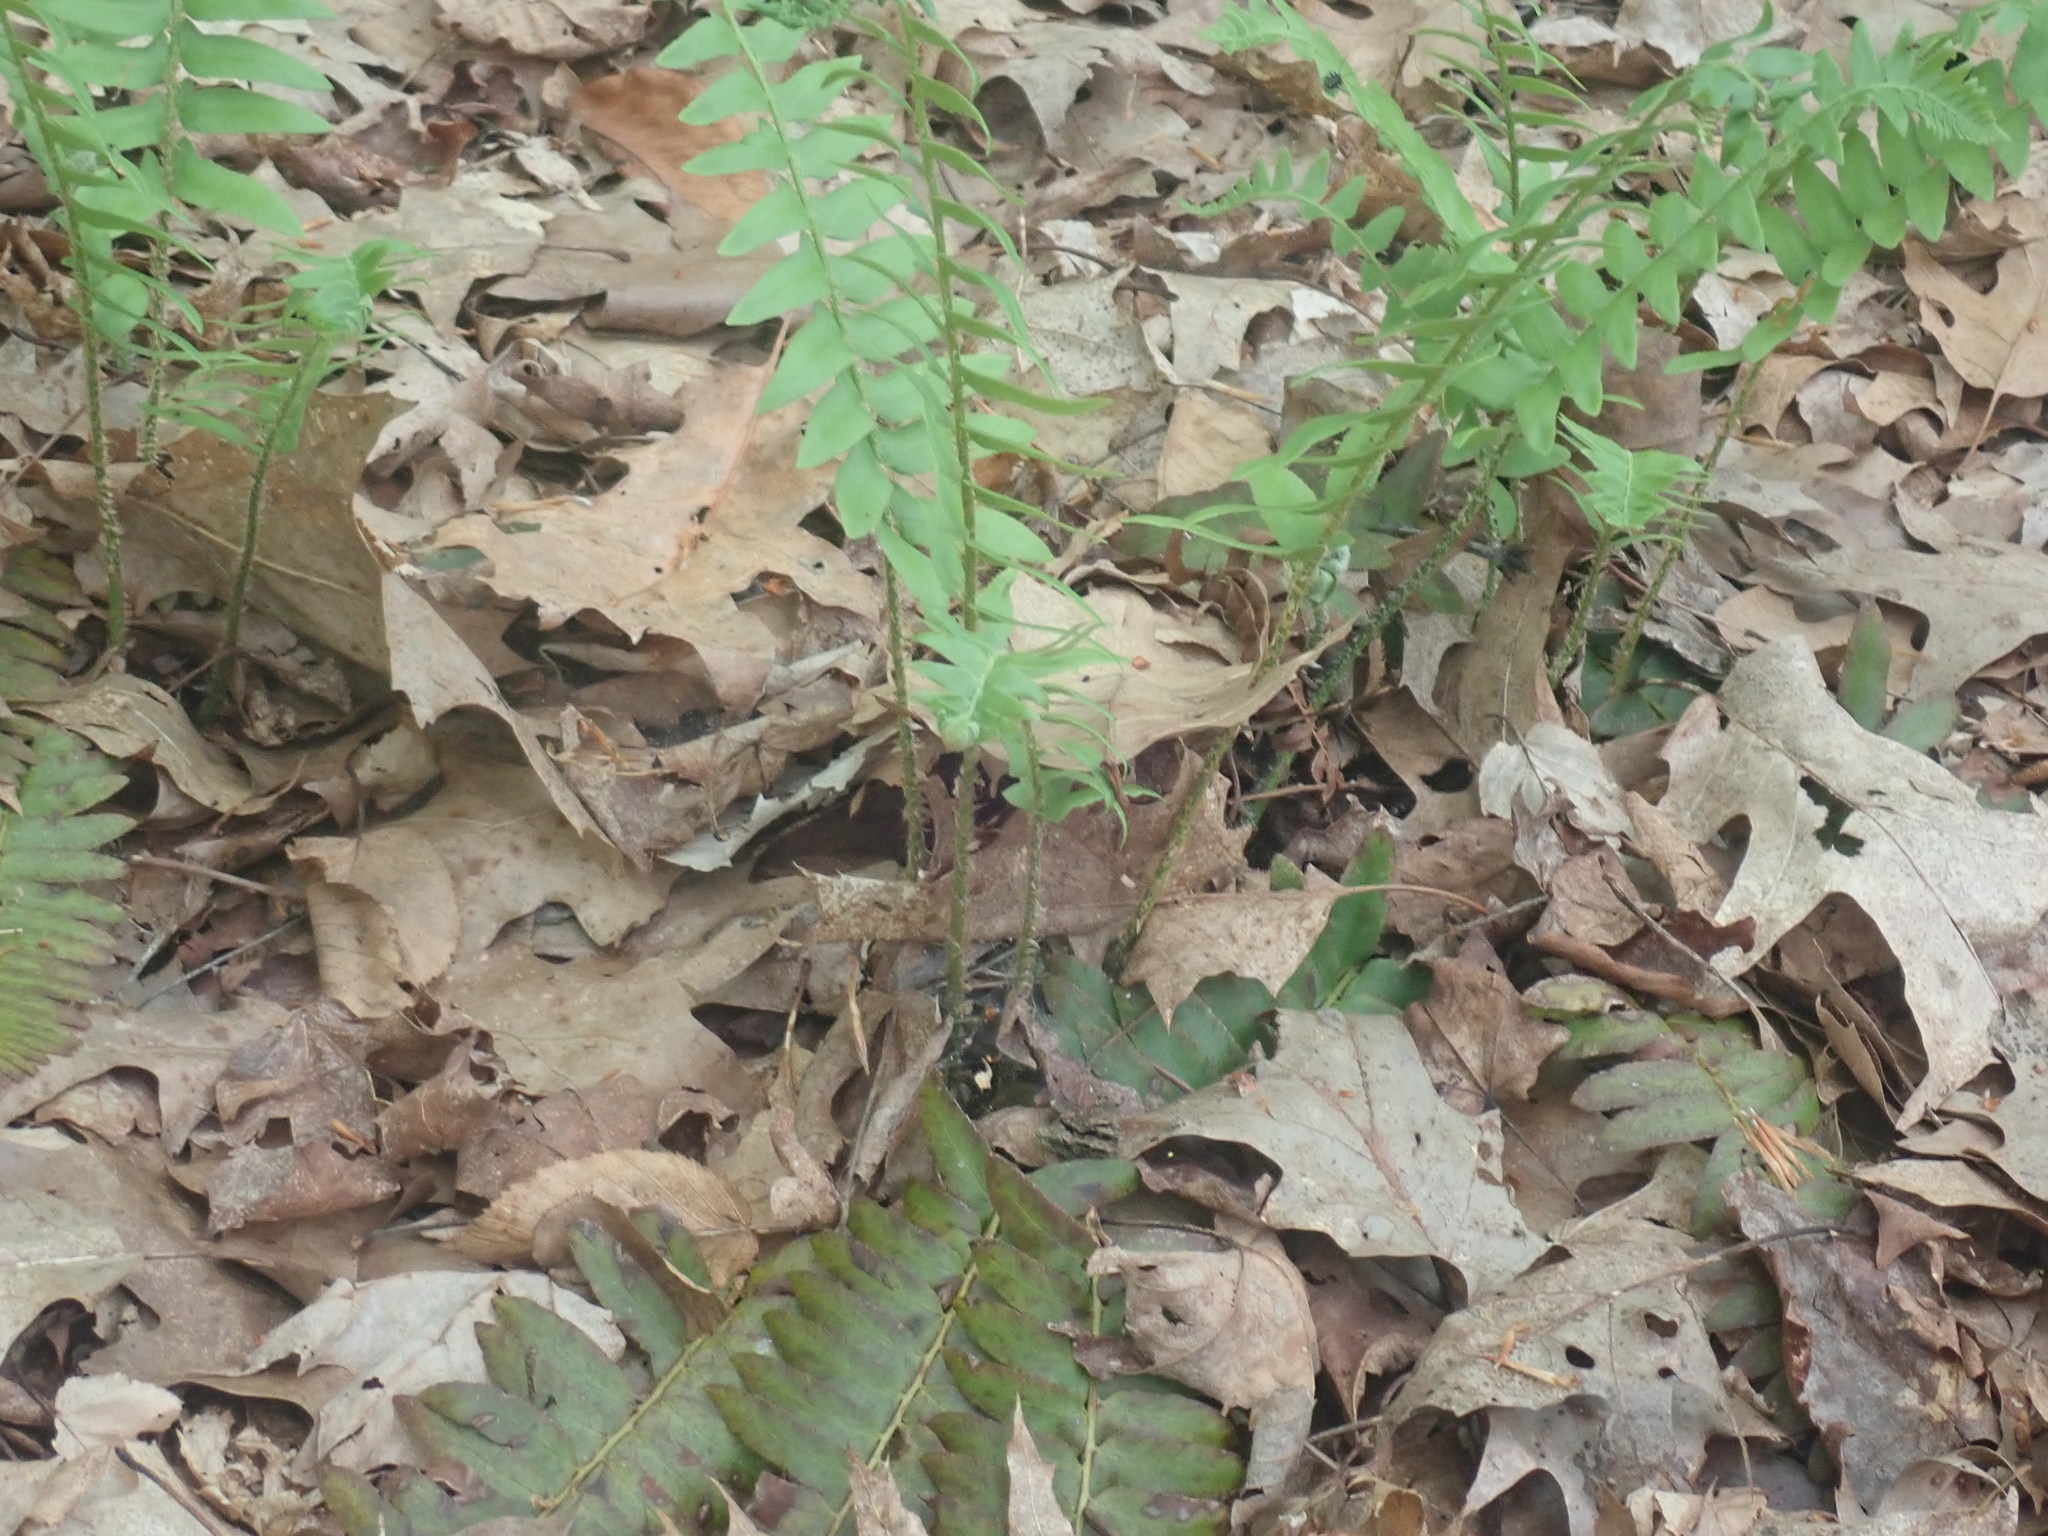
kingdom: Plantae
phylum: Tracheophyta
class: Polypodiopsida
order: Polypodiales
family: Dryopteridaceae
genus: Polystichum
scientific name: Polystichum acrostichoides
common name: Christmas fern
